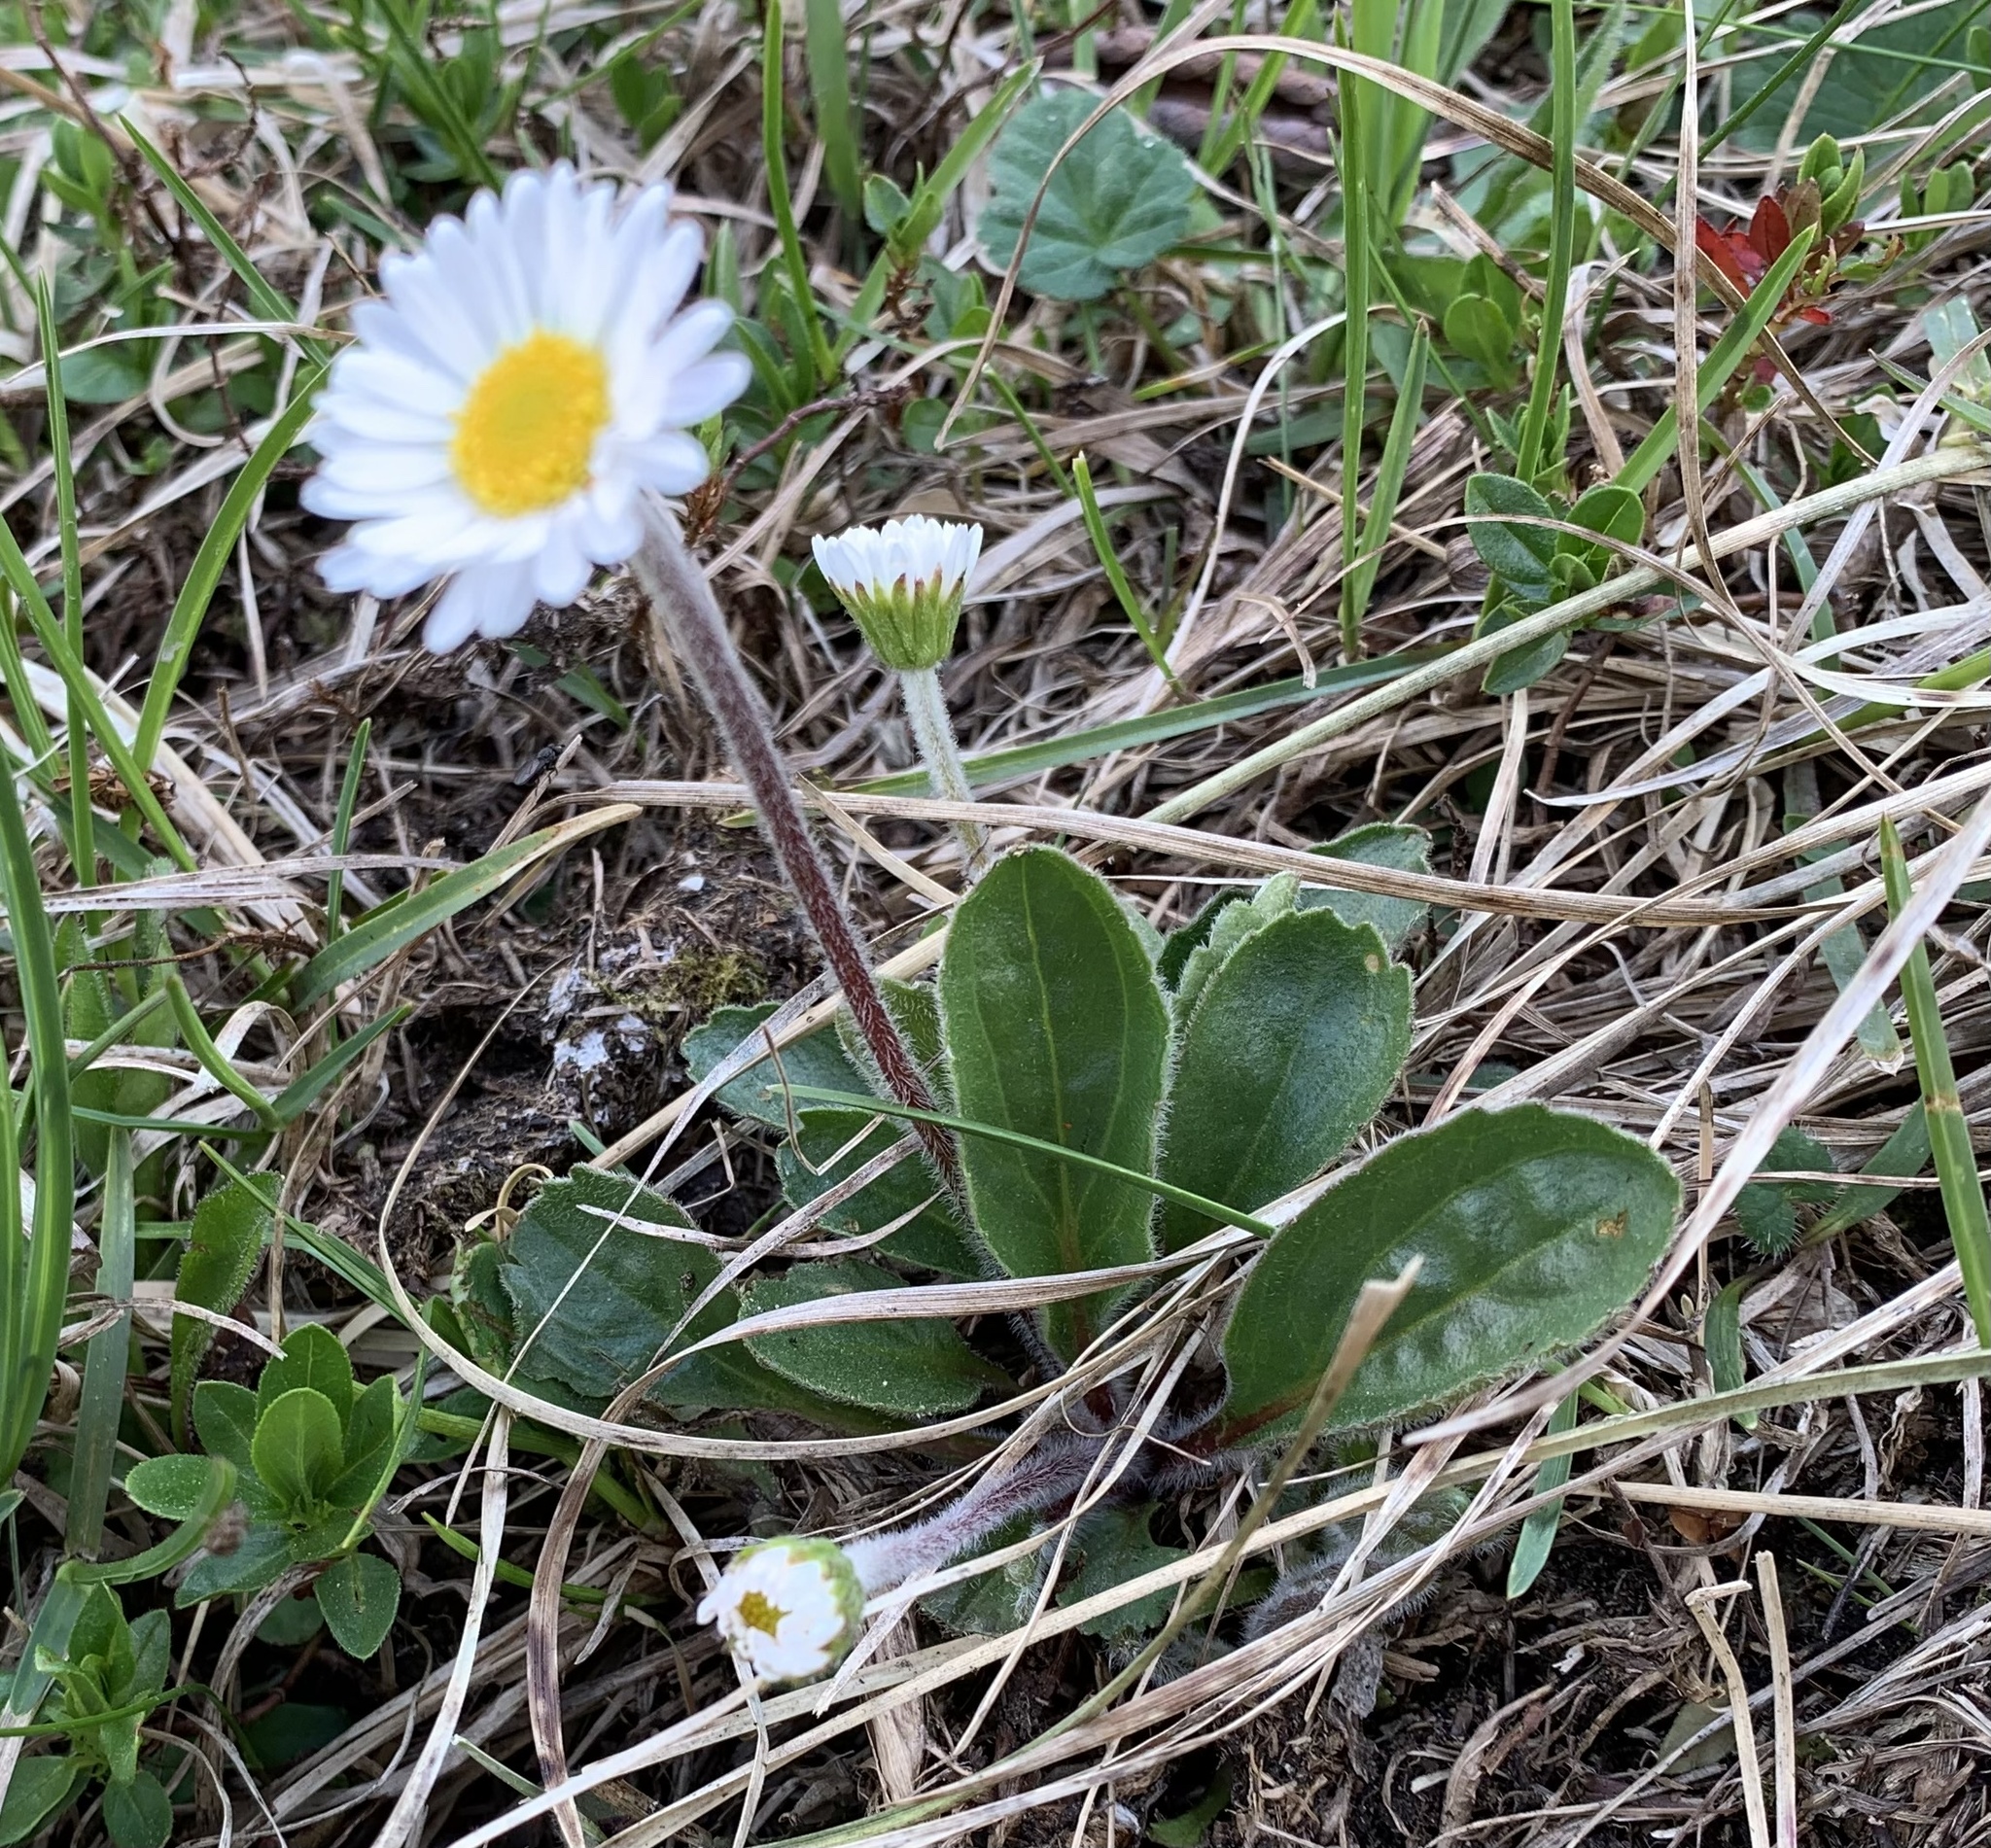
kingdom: Plantae
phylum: Tracheophyta
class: Magnoliopsida
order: Asterales
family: Asteraceae
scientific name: Asteraceae
